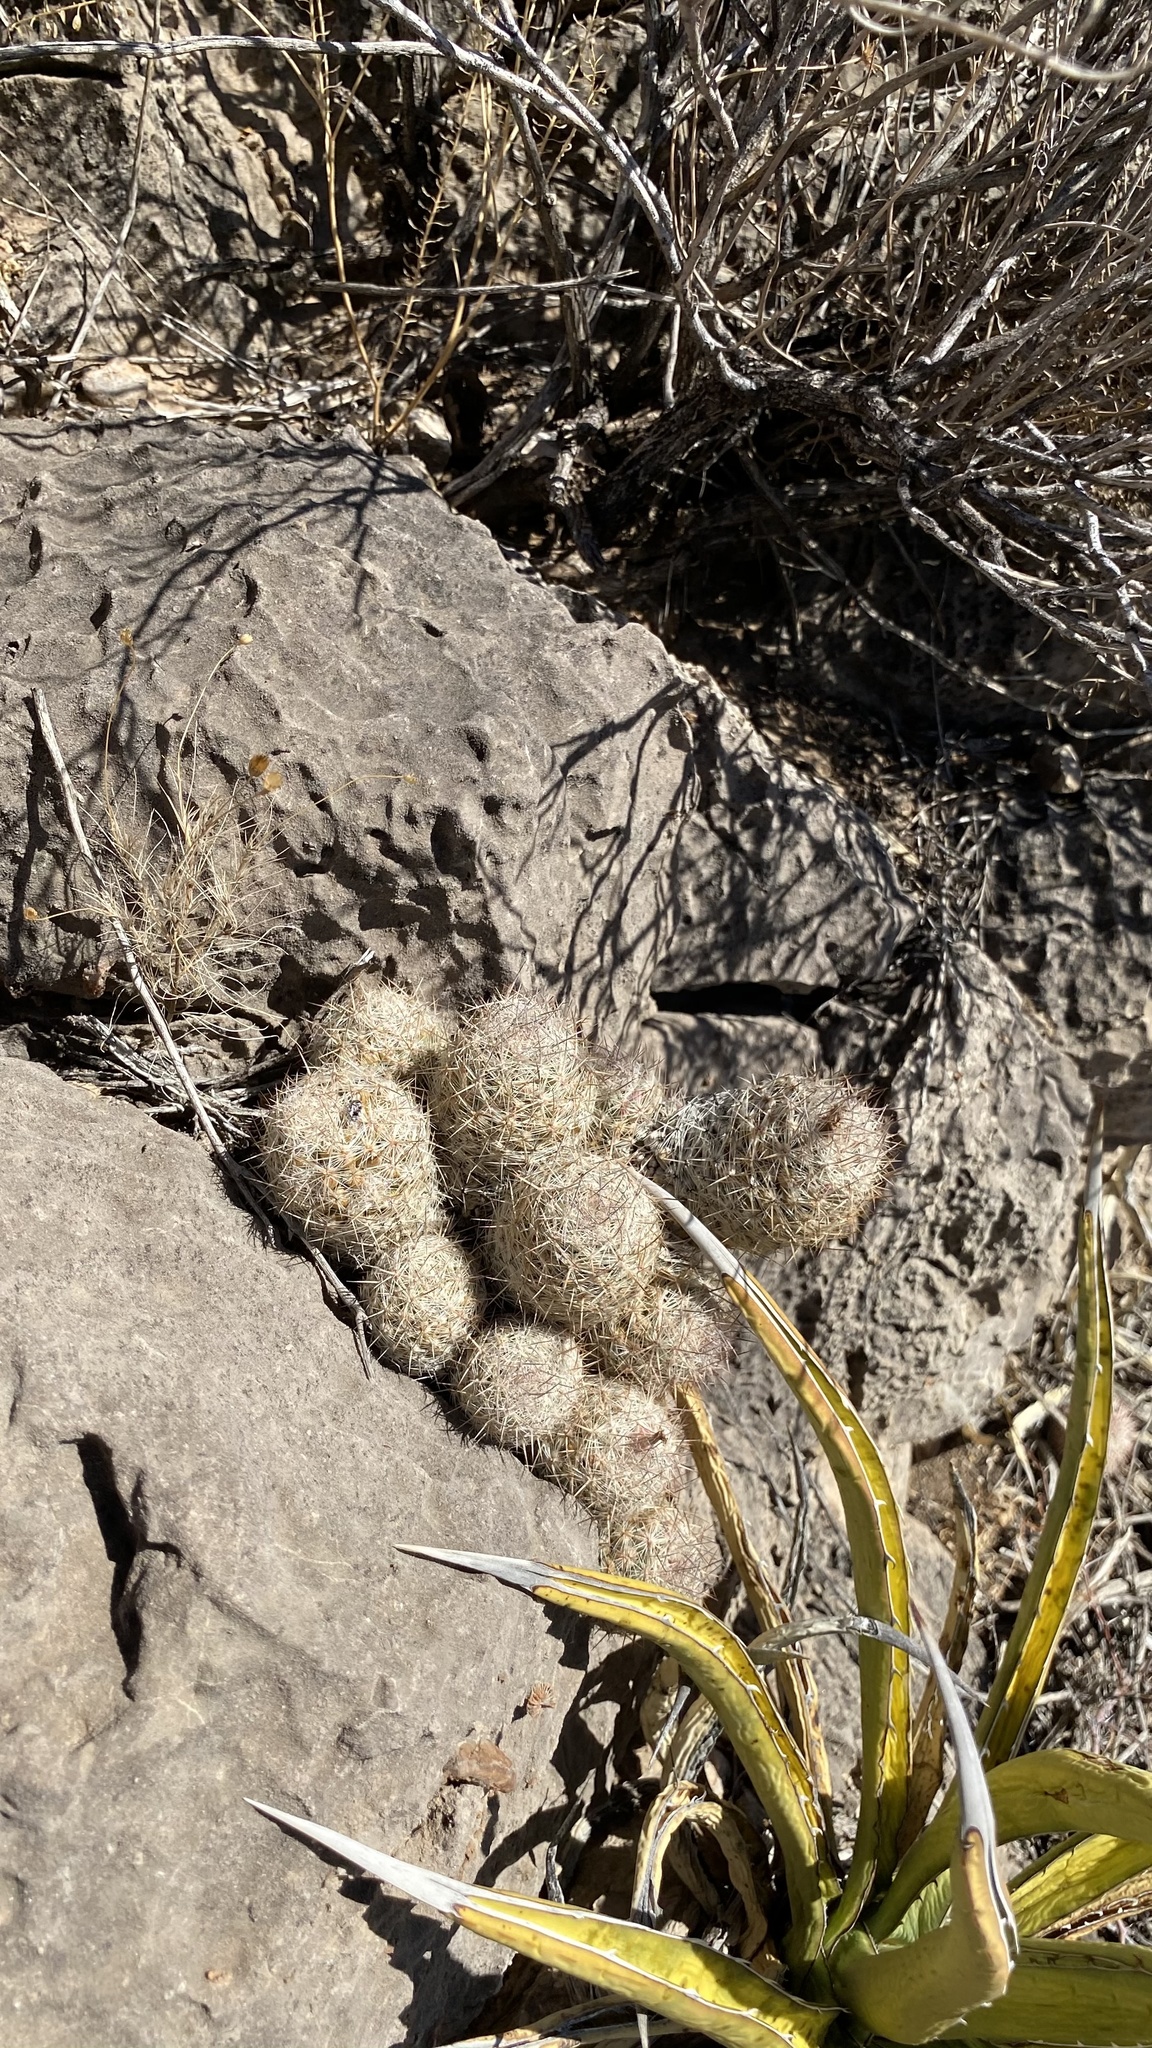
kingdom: Plantae
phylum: Tracheophyta
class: Magnoliopsida
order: Caryophyllales
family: Cactaceae
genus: Pelecyphora
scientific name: Pelecyphora tuberculosa
